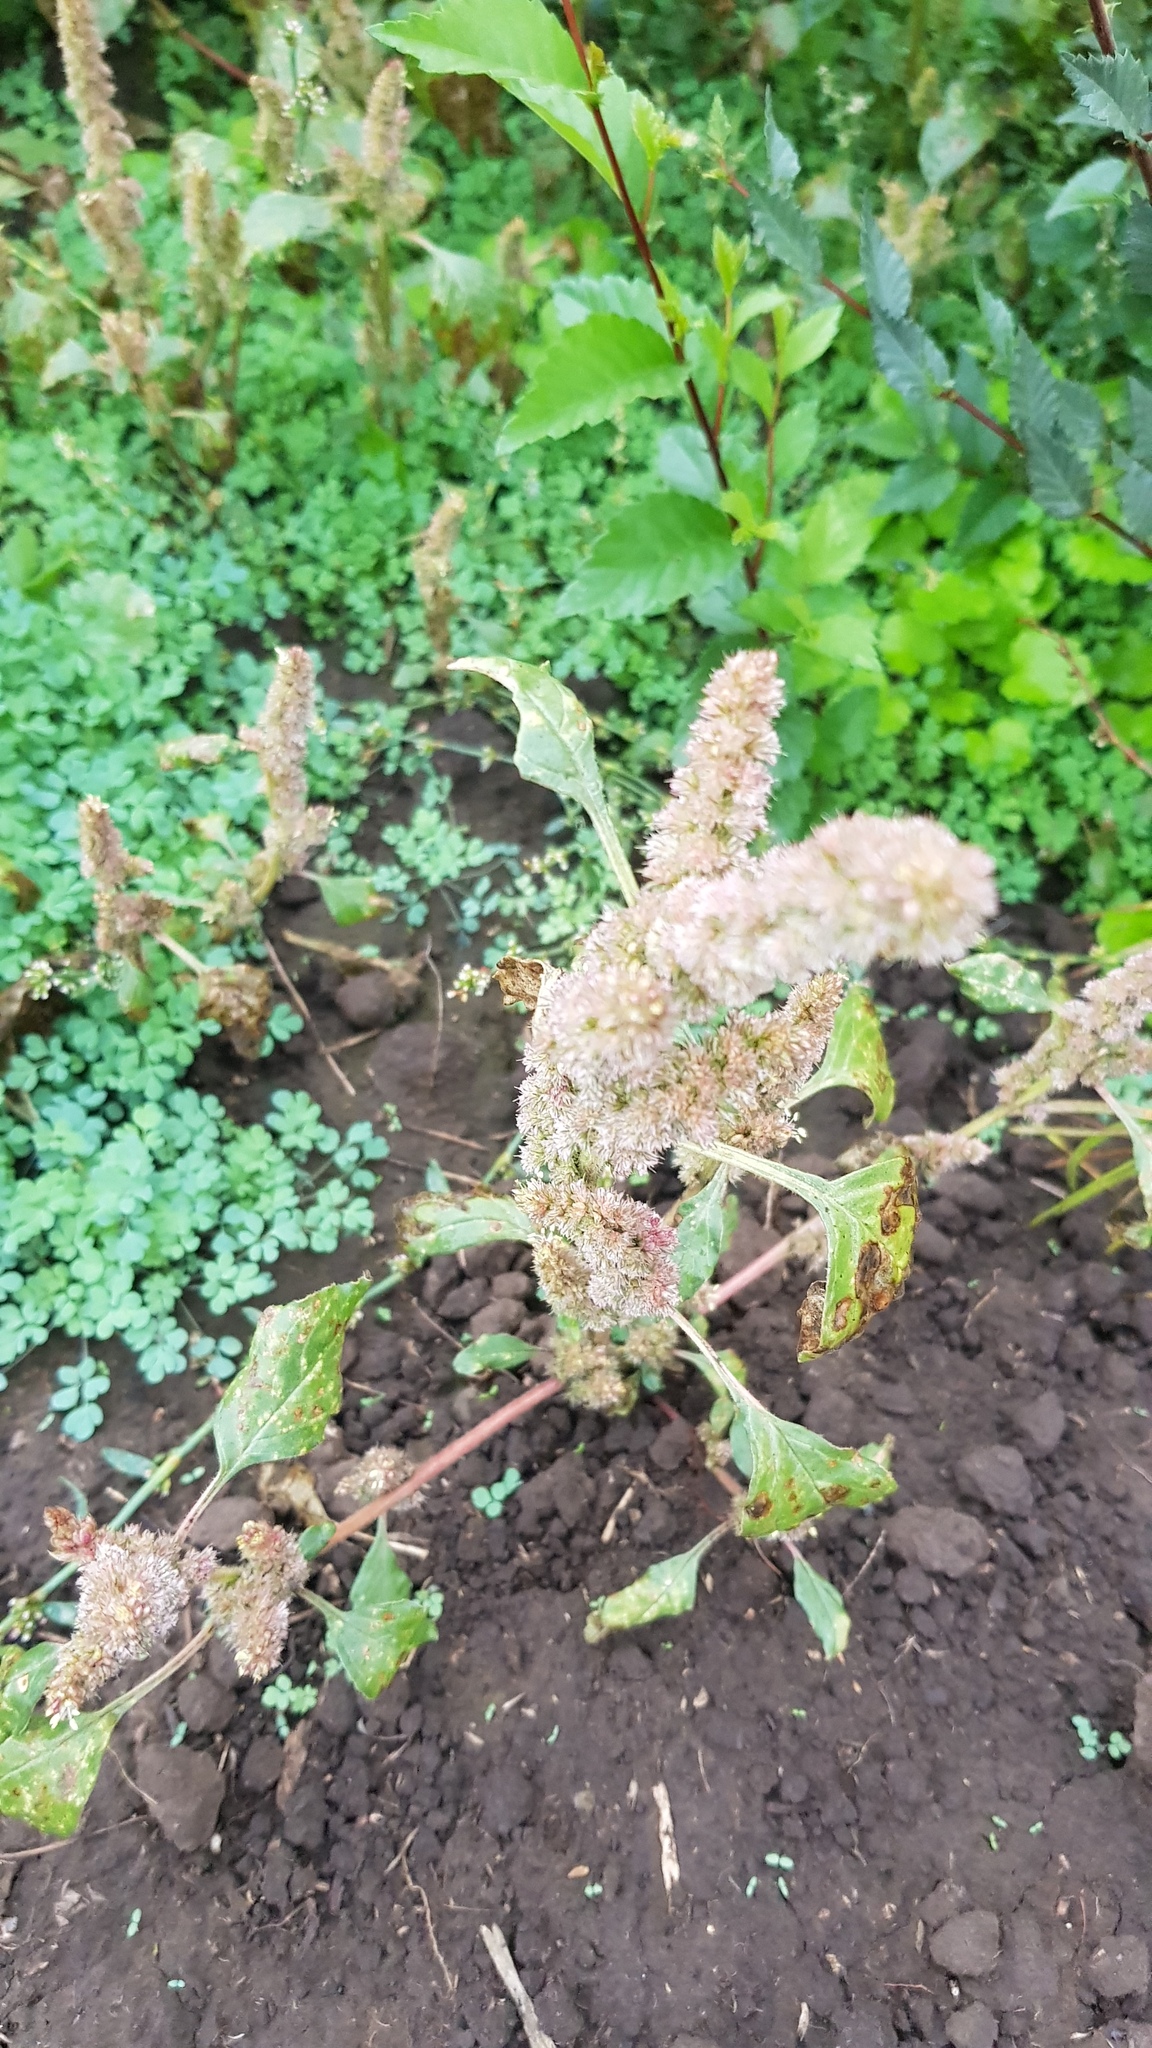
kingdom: Plantae
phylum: Tracheophyta
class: Magnoliopsida
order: Caryophyllales
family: Amaranthaceae
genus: Amaranthus
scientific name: Amaranthus retroflexus
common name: Redroot amaranth
